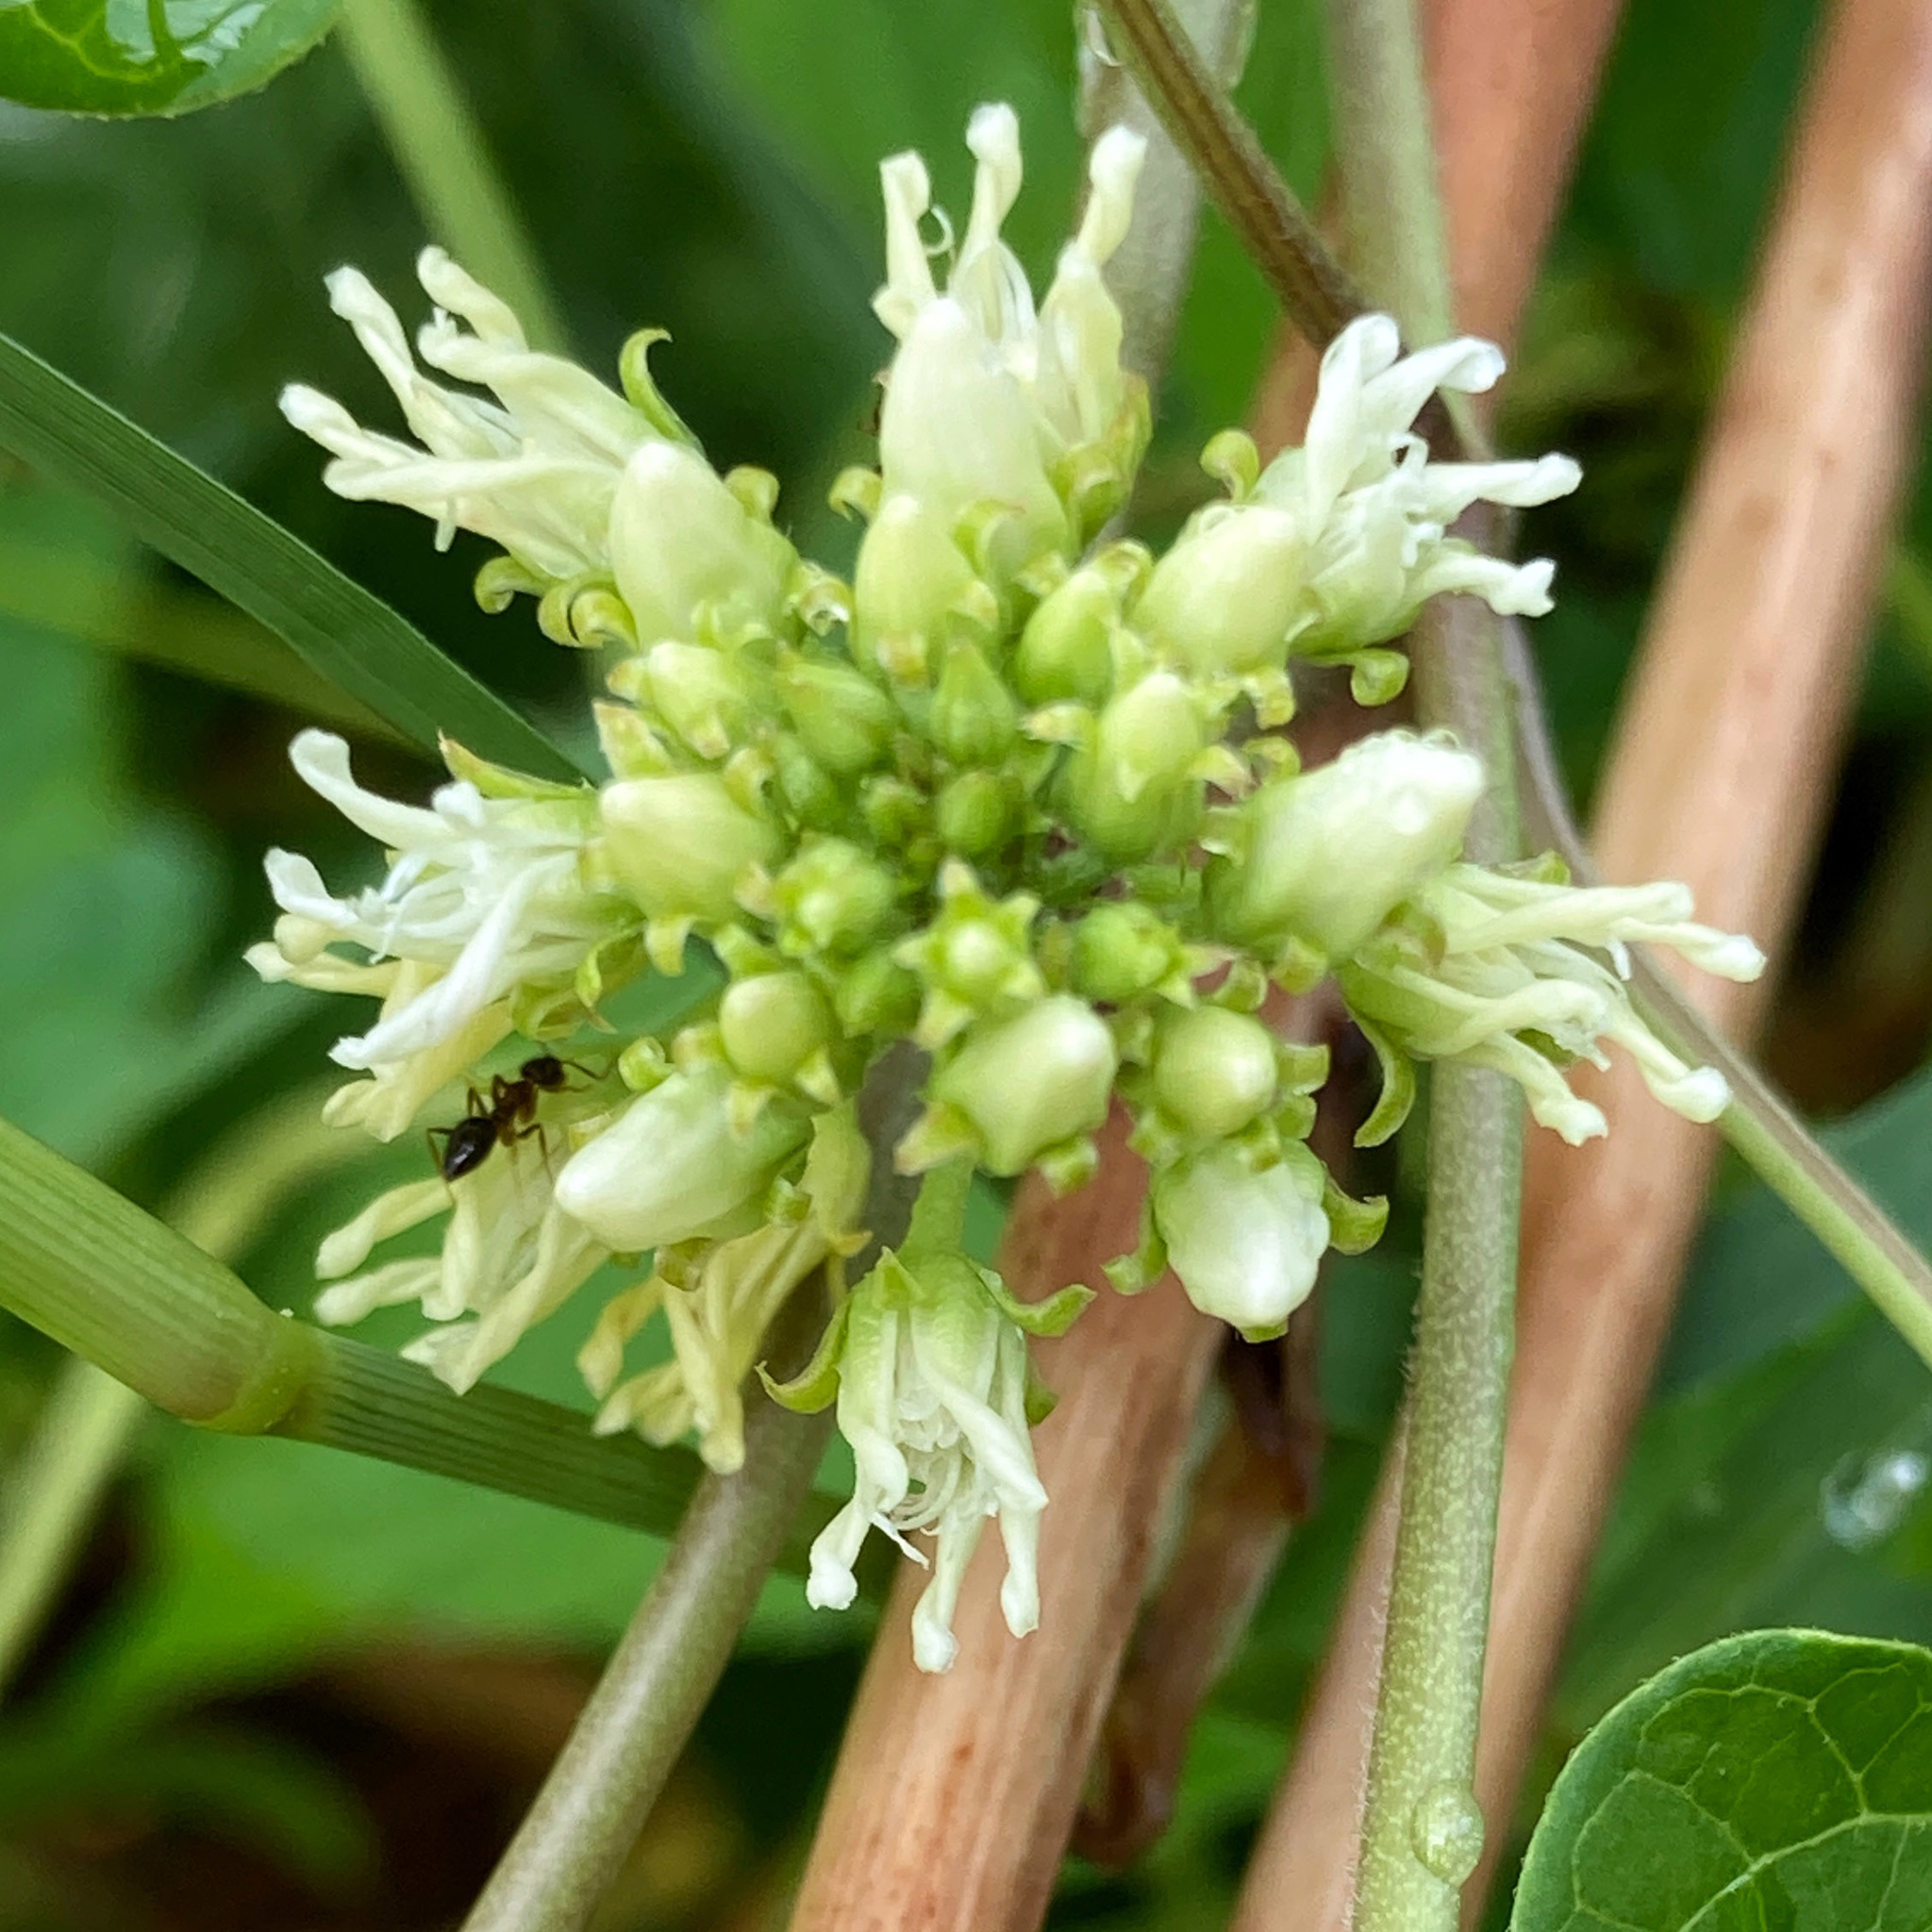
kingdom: Plantae
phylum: Tracheophyta
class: Magnoliopsida
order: Gentianales
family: Apocynaceae
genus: Cynanchum
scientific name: Cynanchum laeve
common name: Sandvine
